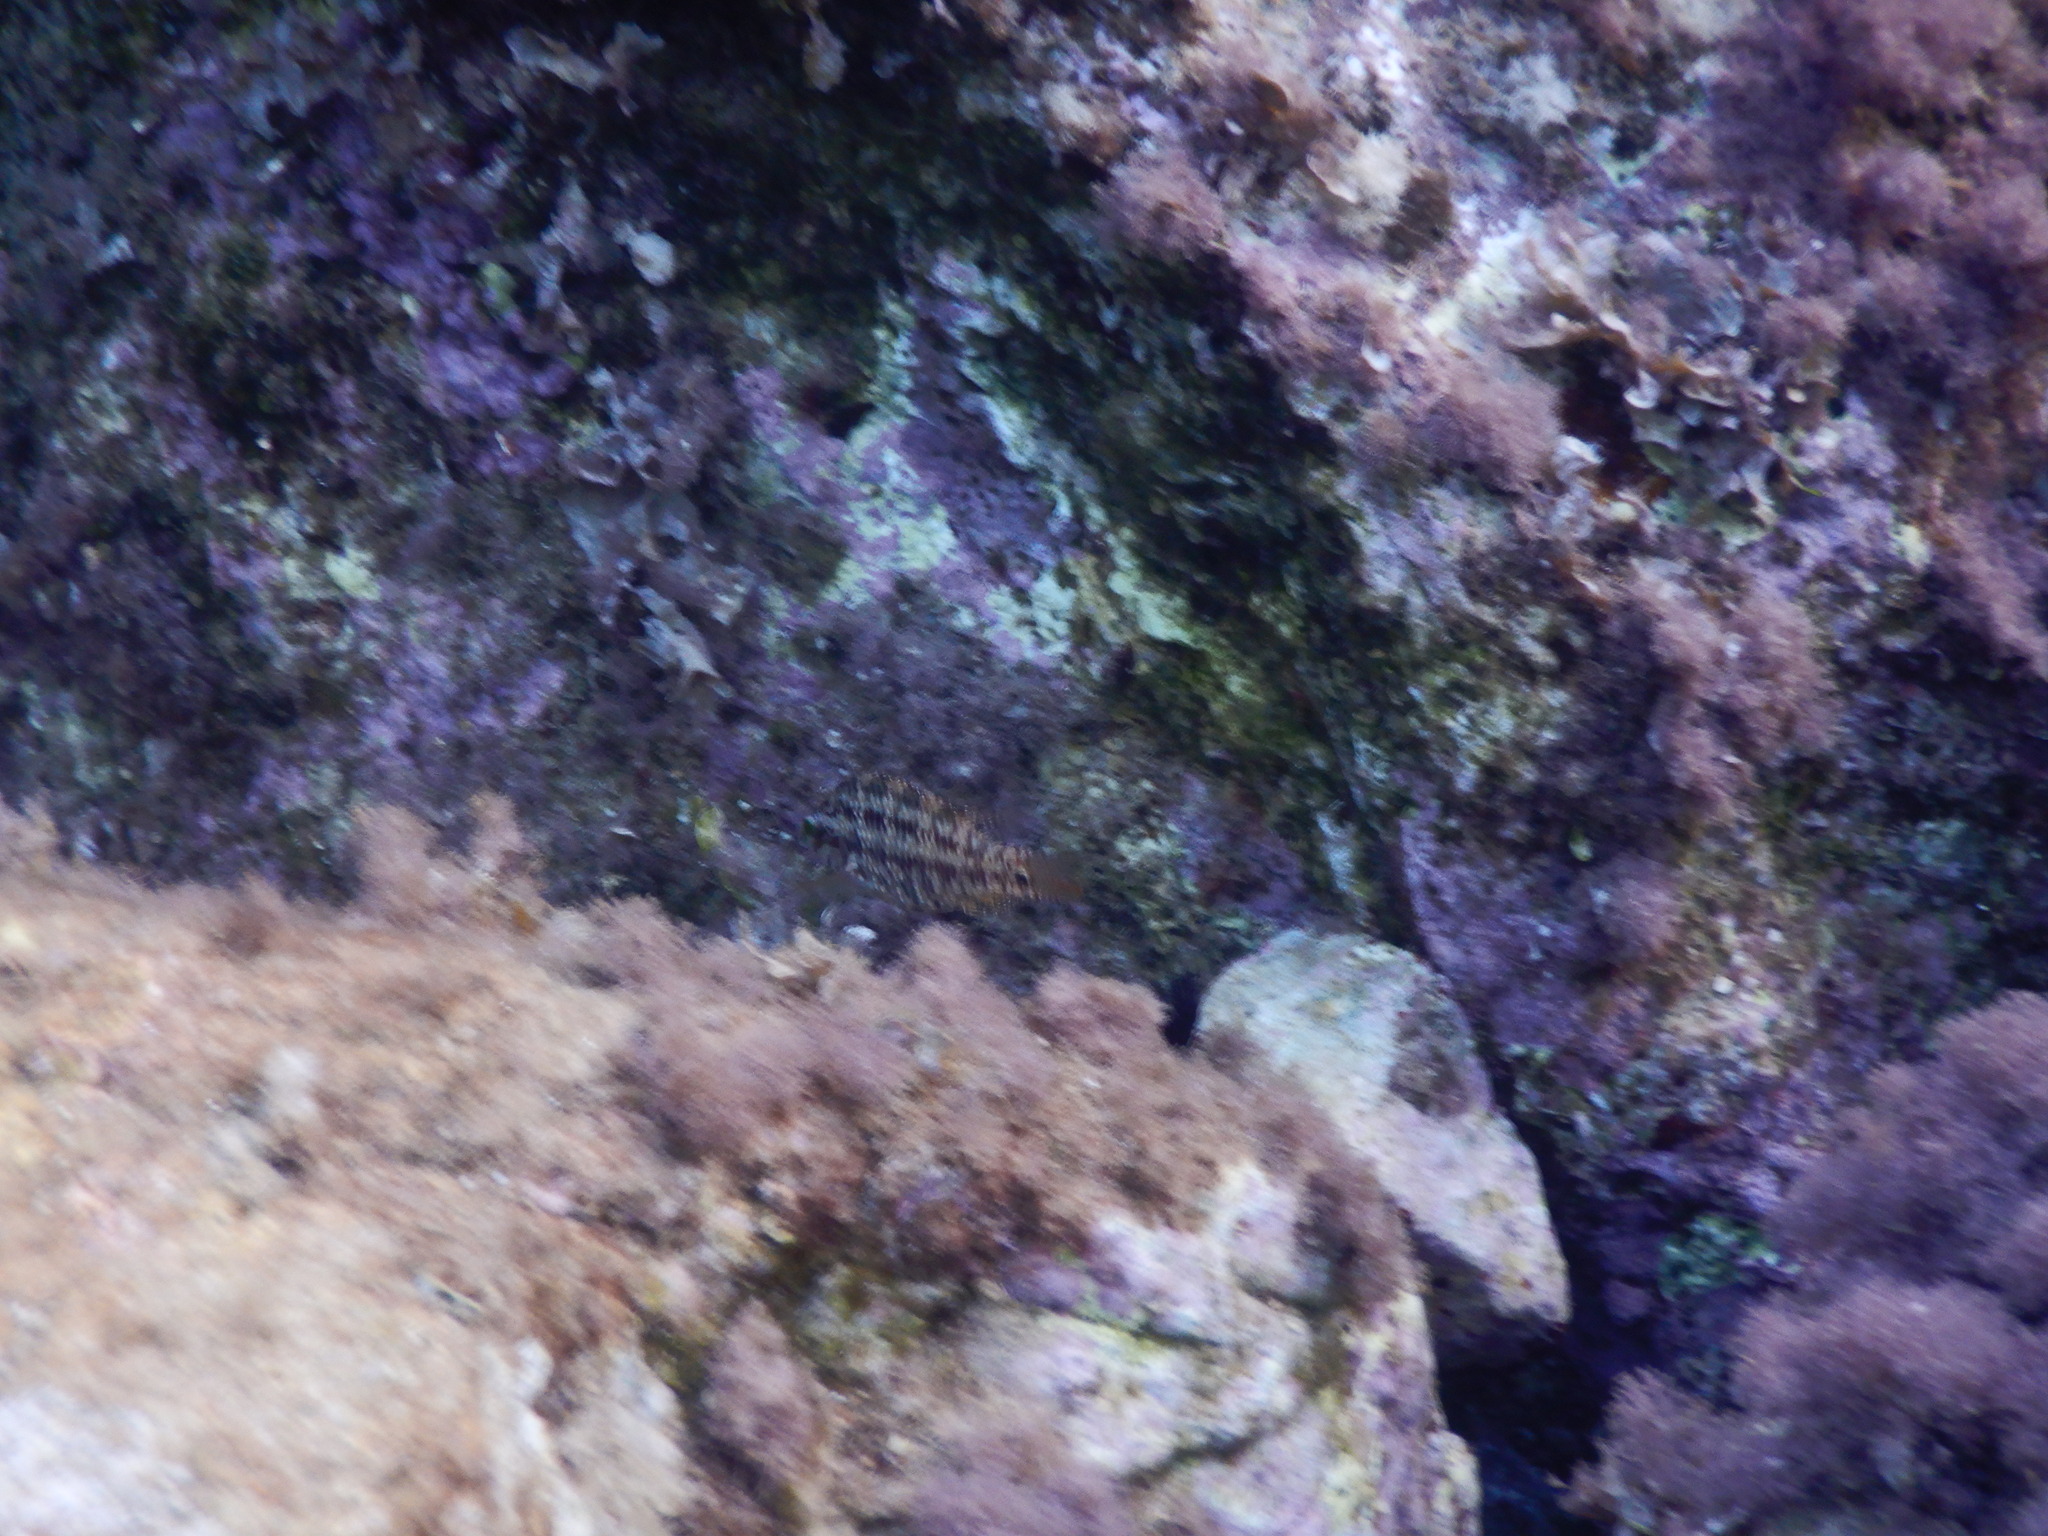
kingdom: Animalia
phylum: Chordata
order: Perciformes
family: Labridae
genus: Symphodus
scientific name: Symphodus roissali
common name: Five-spotted wrasse
